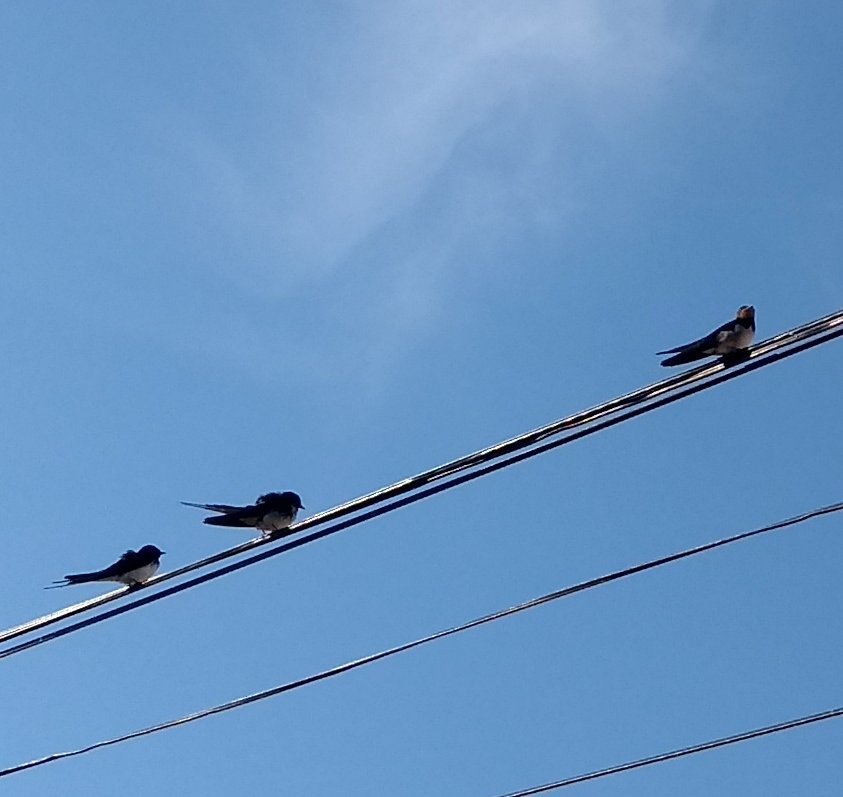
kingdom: Animalia
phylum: Chordata
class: Aves
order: Passeriformes
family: Hirundinidae
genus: Hirundo
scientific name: Hirundo rustica
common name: Barn swallow
